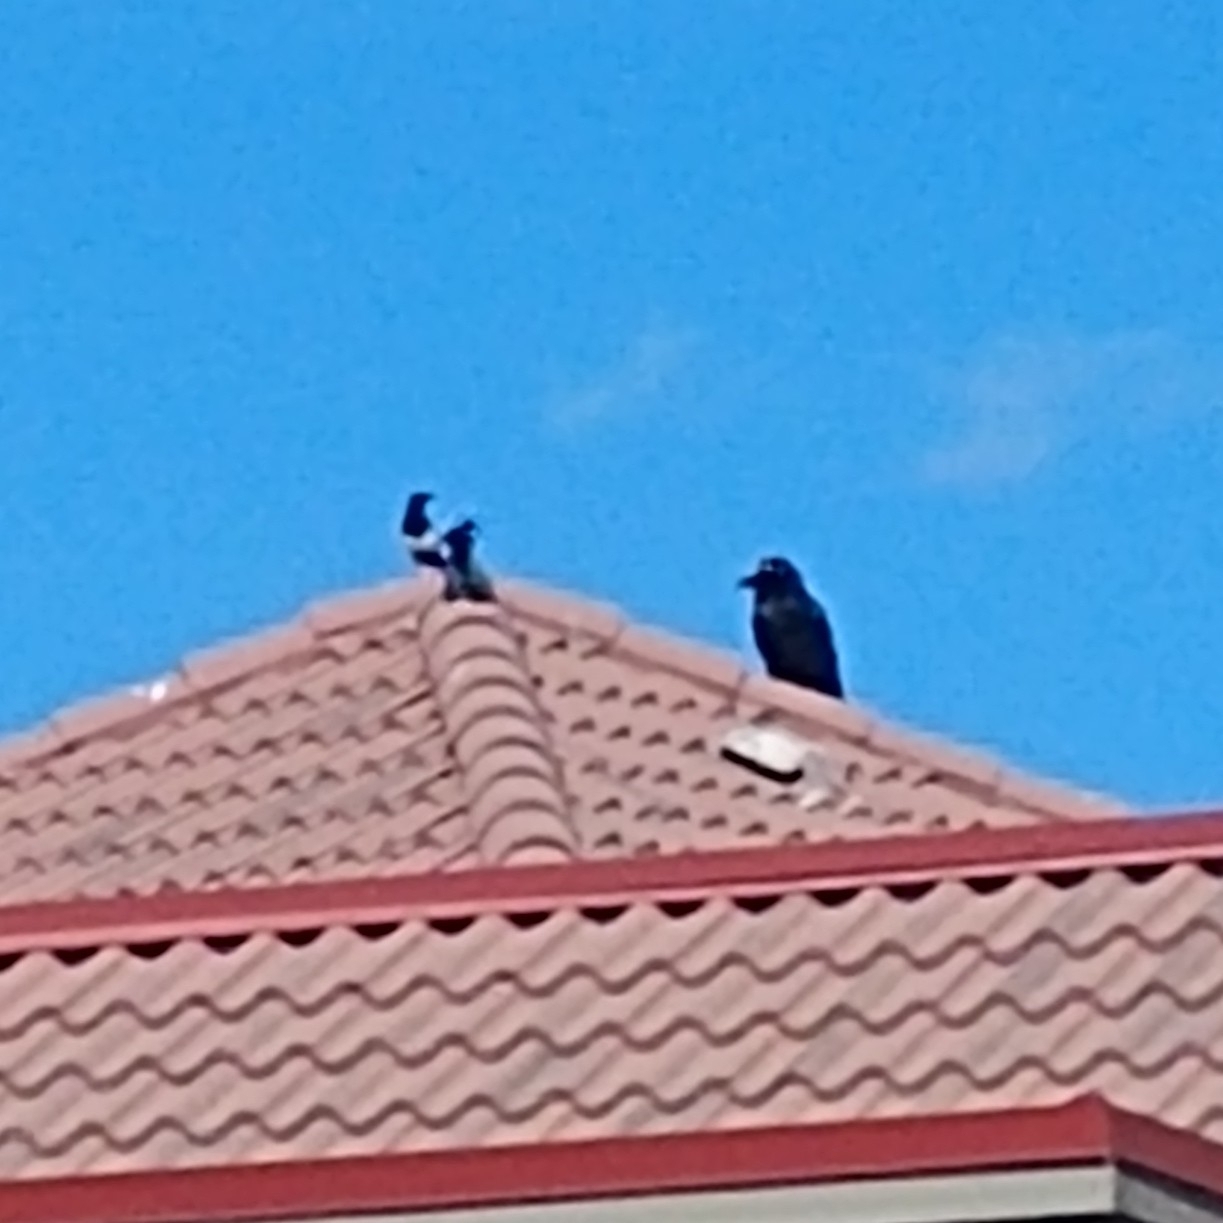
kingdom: Animalia
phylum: Chordata
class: Aves
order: Passeriformes
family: Corvidae
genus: Pica
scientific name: Pica hudsonia
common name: Black-billed magpie
